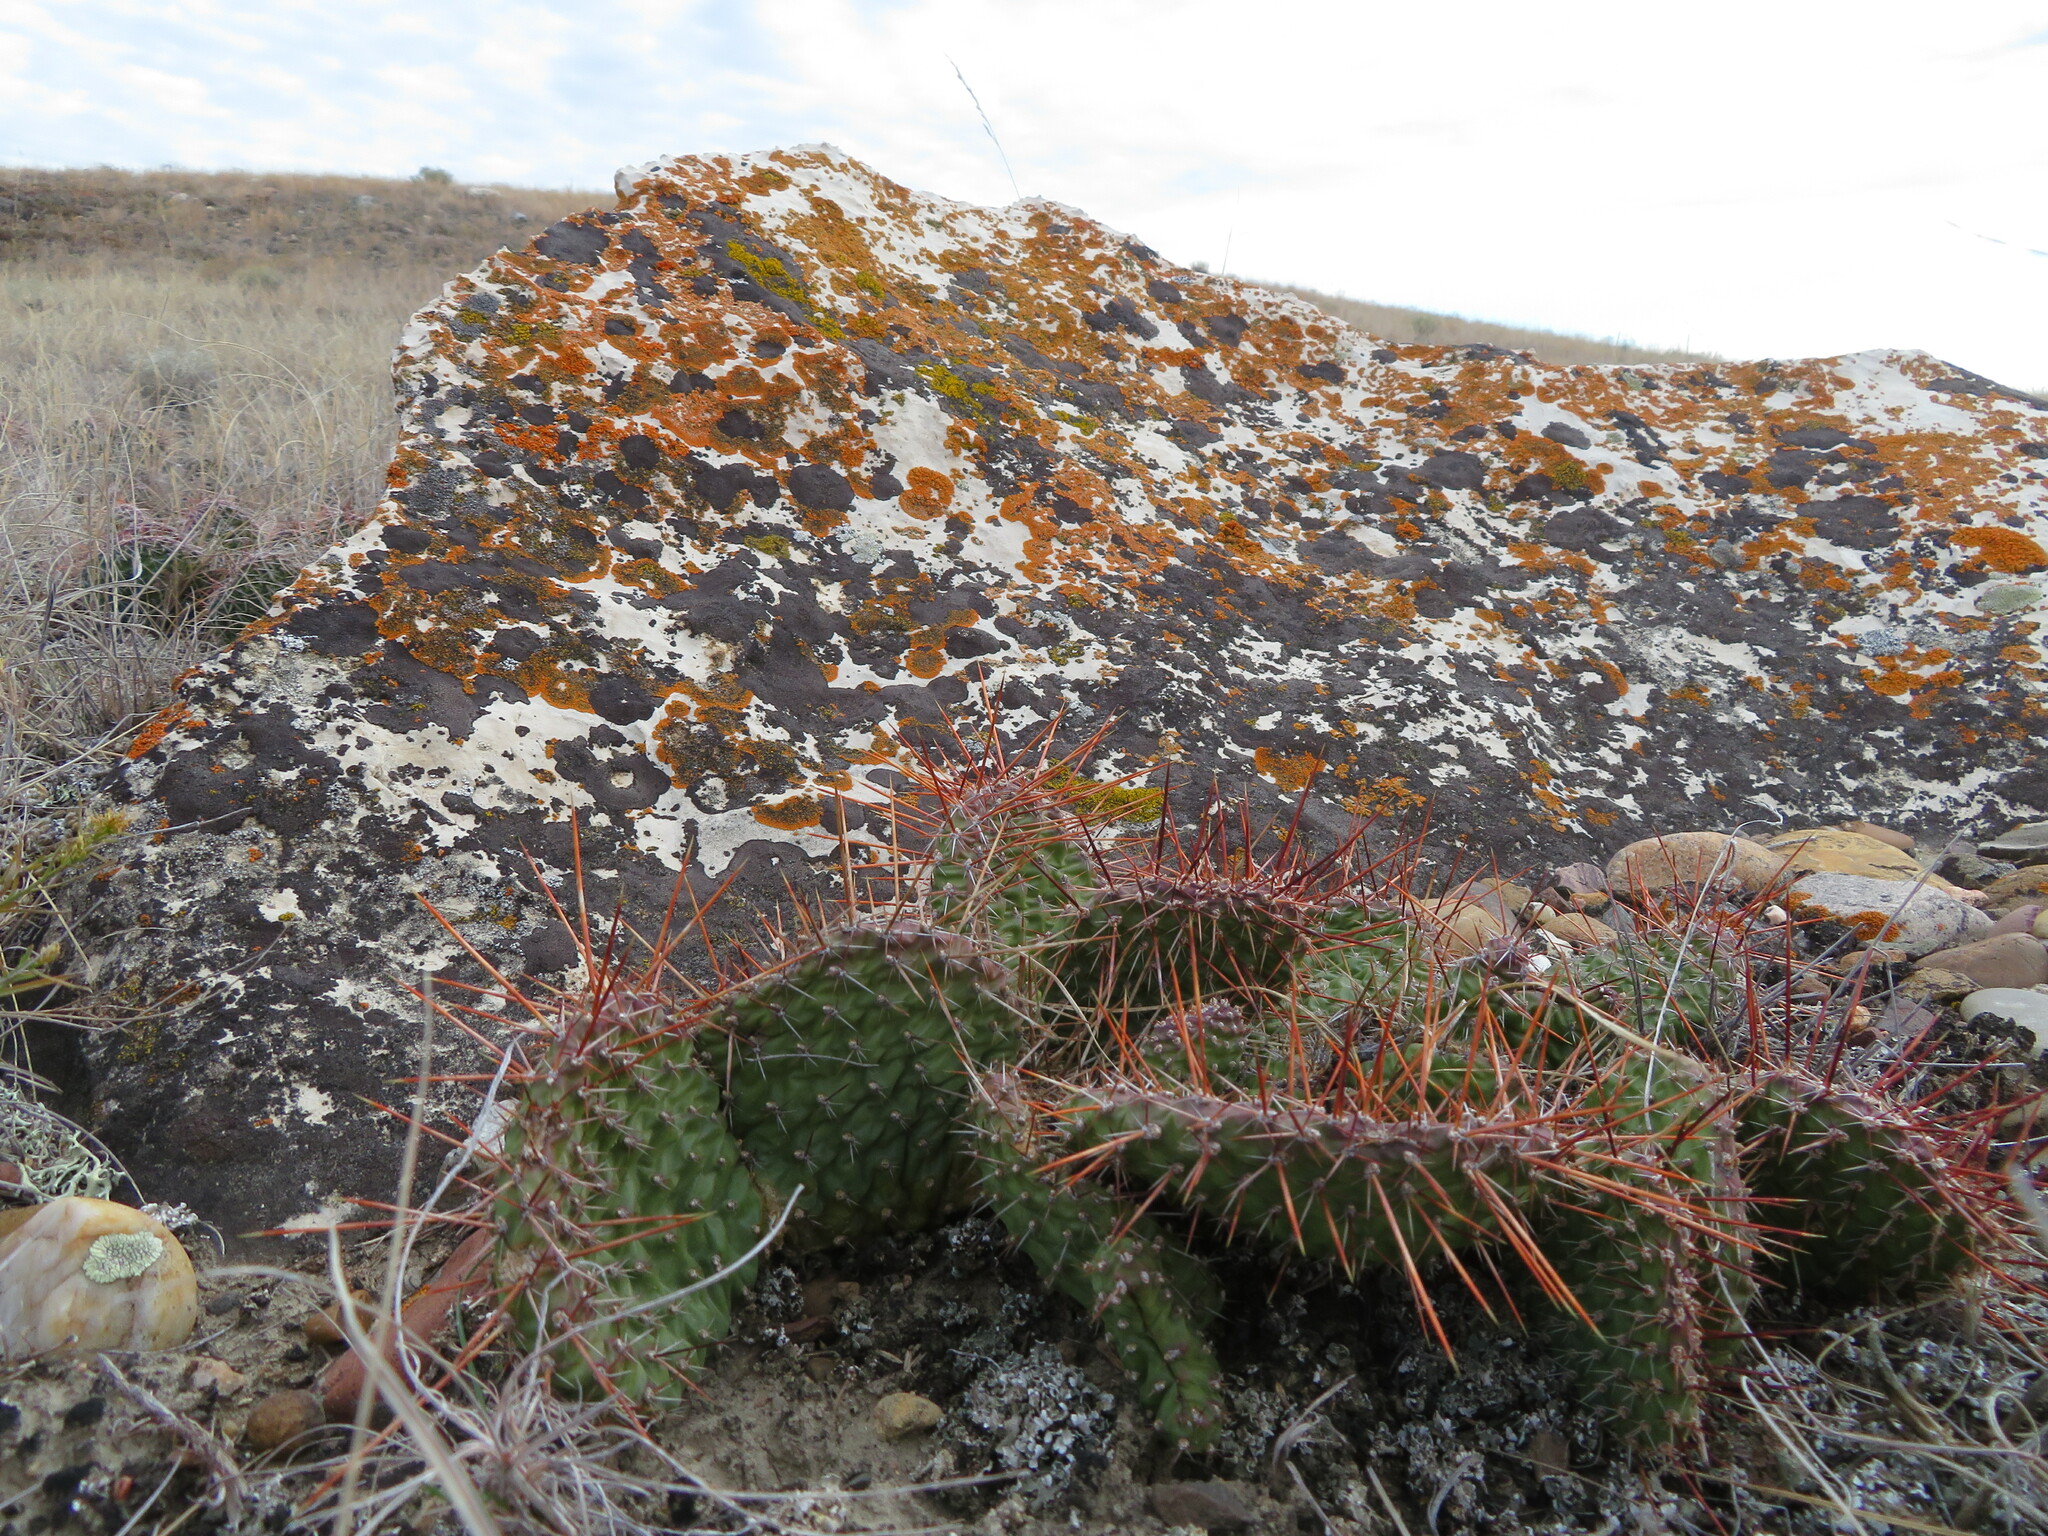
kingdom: Plantae
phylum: Tracheophyta
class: Magnoliopsida
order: Caryophyllales
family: Cactaceae
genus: Opuntia
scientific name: Opuntia polyacantha
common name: Plains prickly-pear
